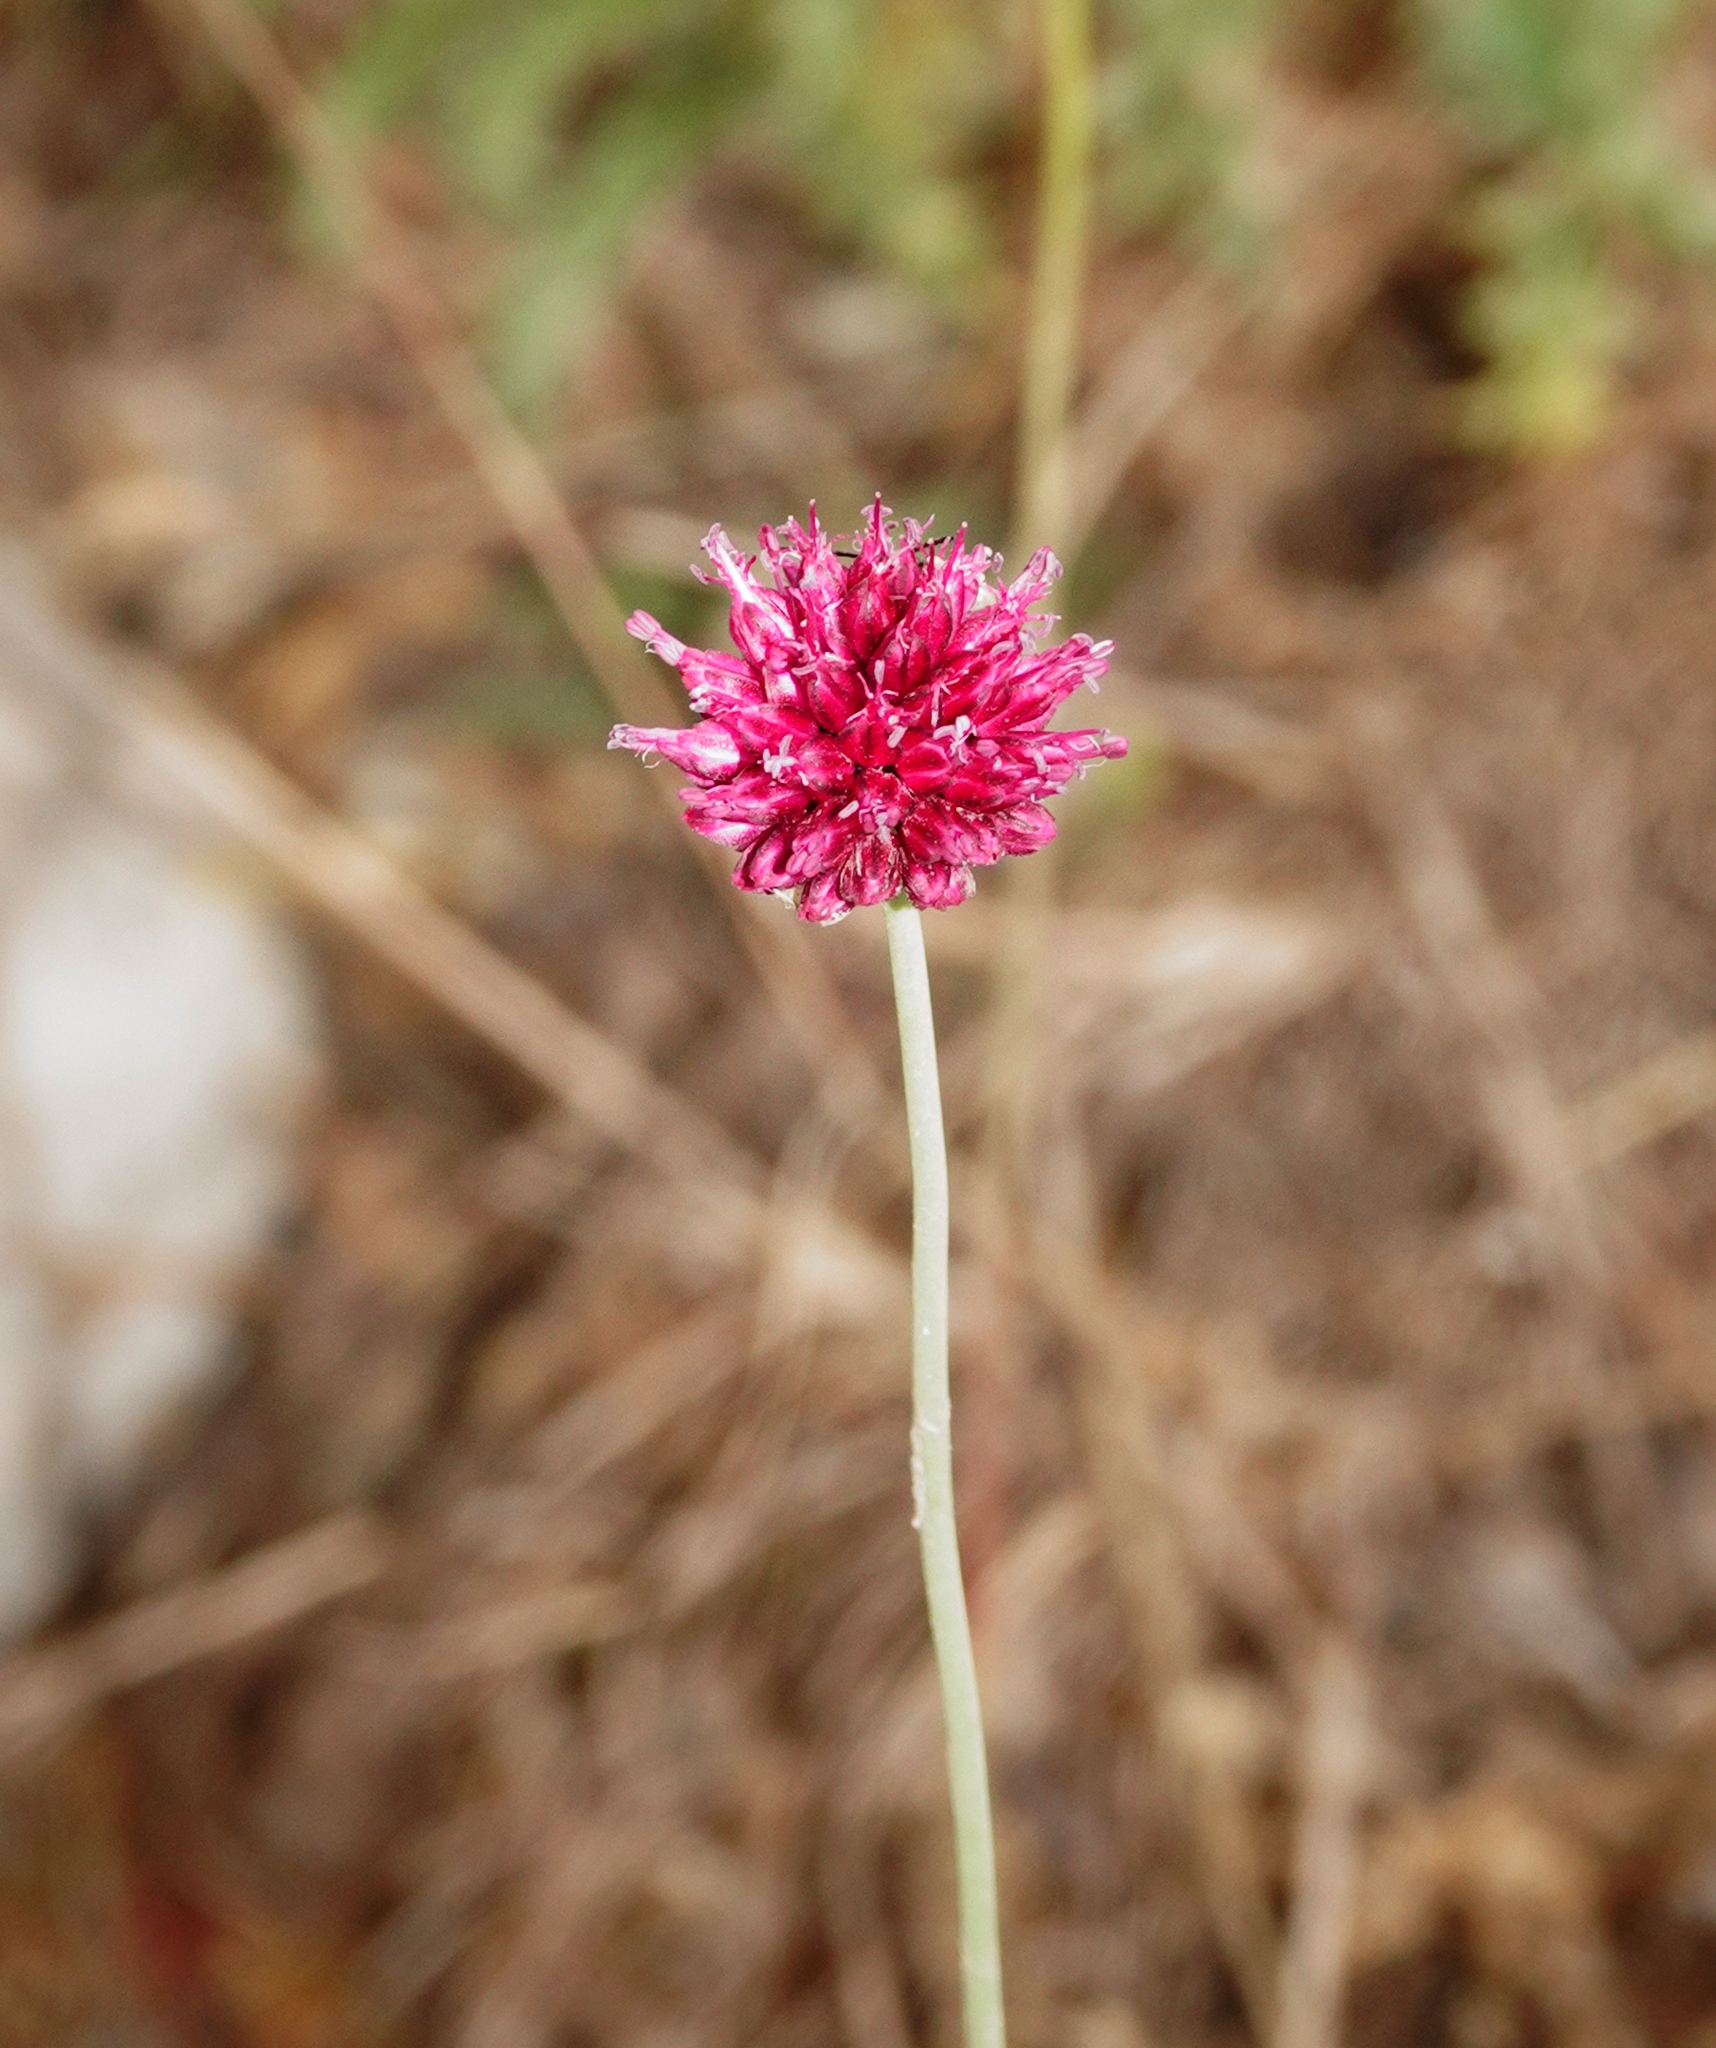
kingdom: Plantae
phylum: Tracheophyta
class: Liliopsida
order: Asparagales
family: Amaryllidaceae
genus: Allium
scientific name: Allium sphaerocephalon
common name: Round-headed leek
